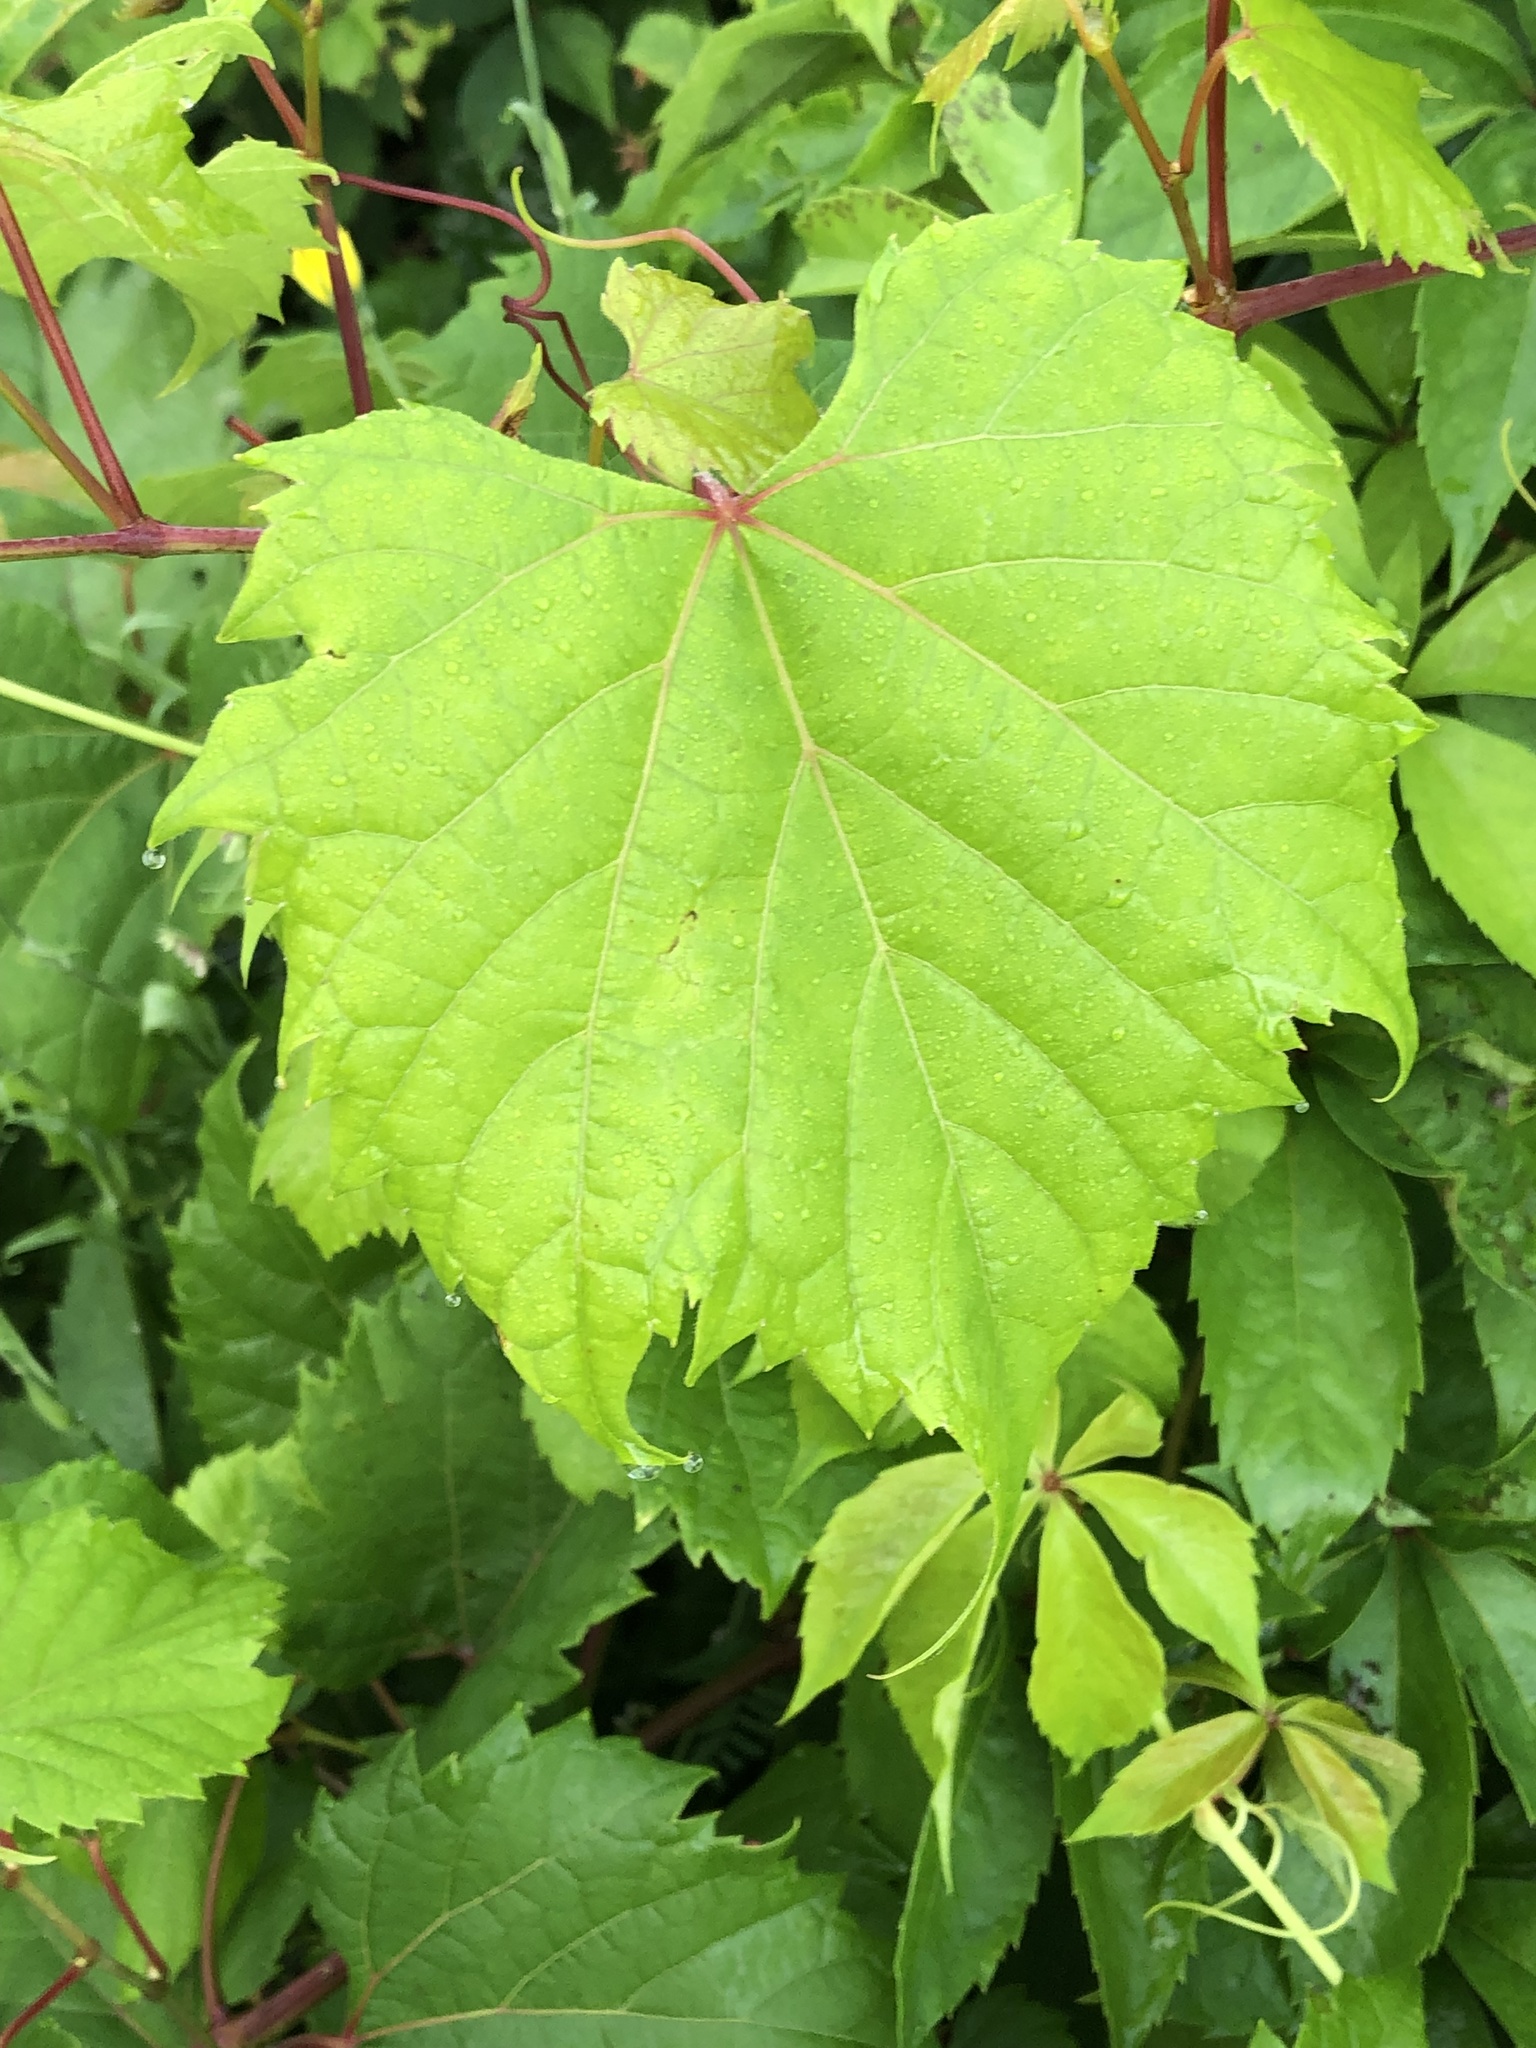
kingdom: Plantae
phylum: Tracheophyta
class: Magnoliopsida
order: Vitales
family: Vitaceae
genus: Vitis
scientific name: Vitis riparia
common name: Frost grape
